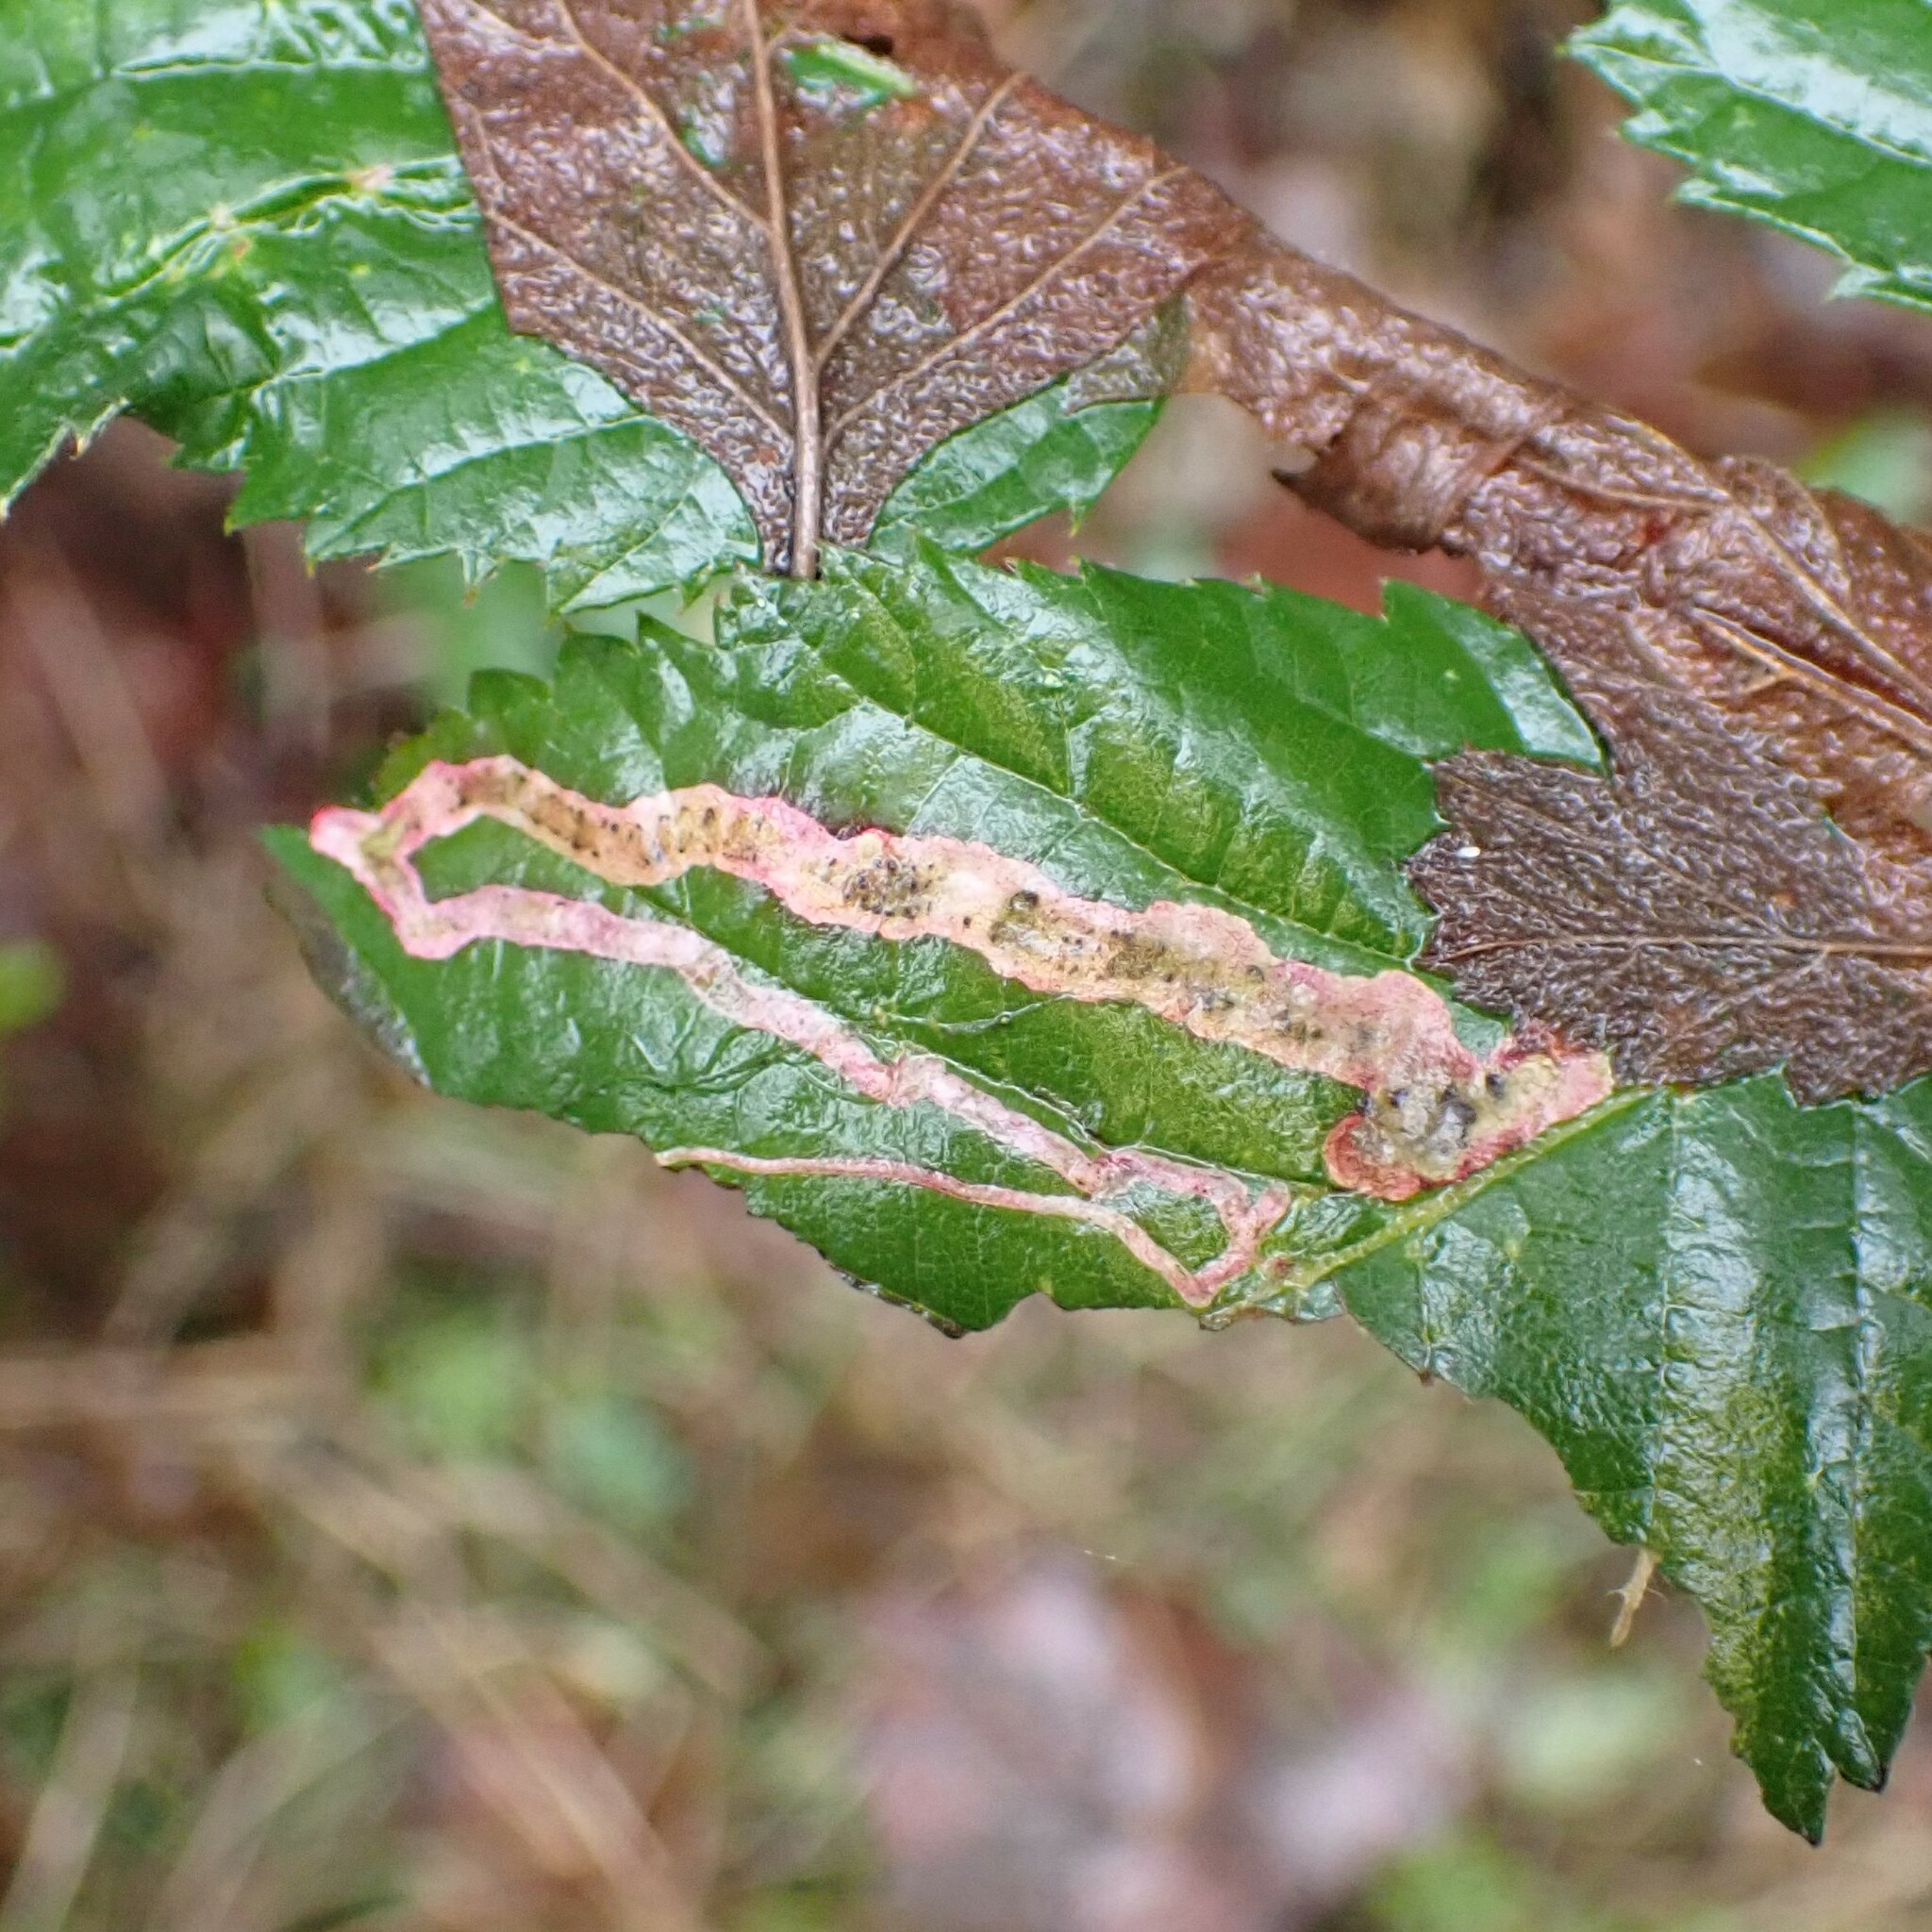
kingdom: Animalia
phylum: Arthropoda
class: Insecta
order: Diptera
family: Agromyzidae
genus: Agromyza
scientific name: Agromyza vockerothi
